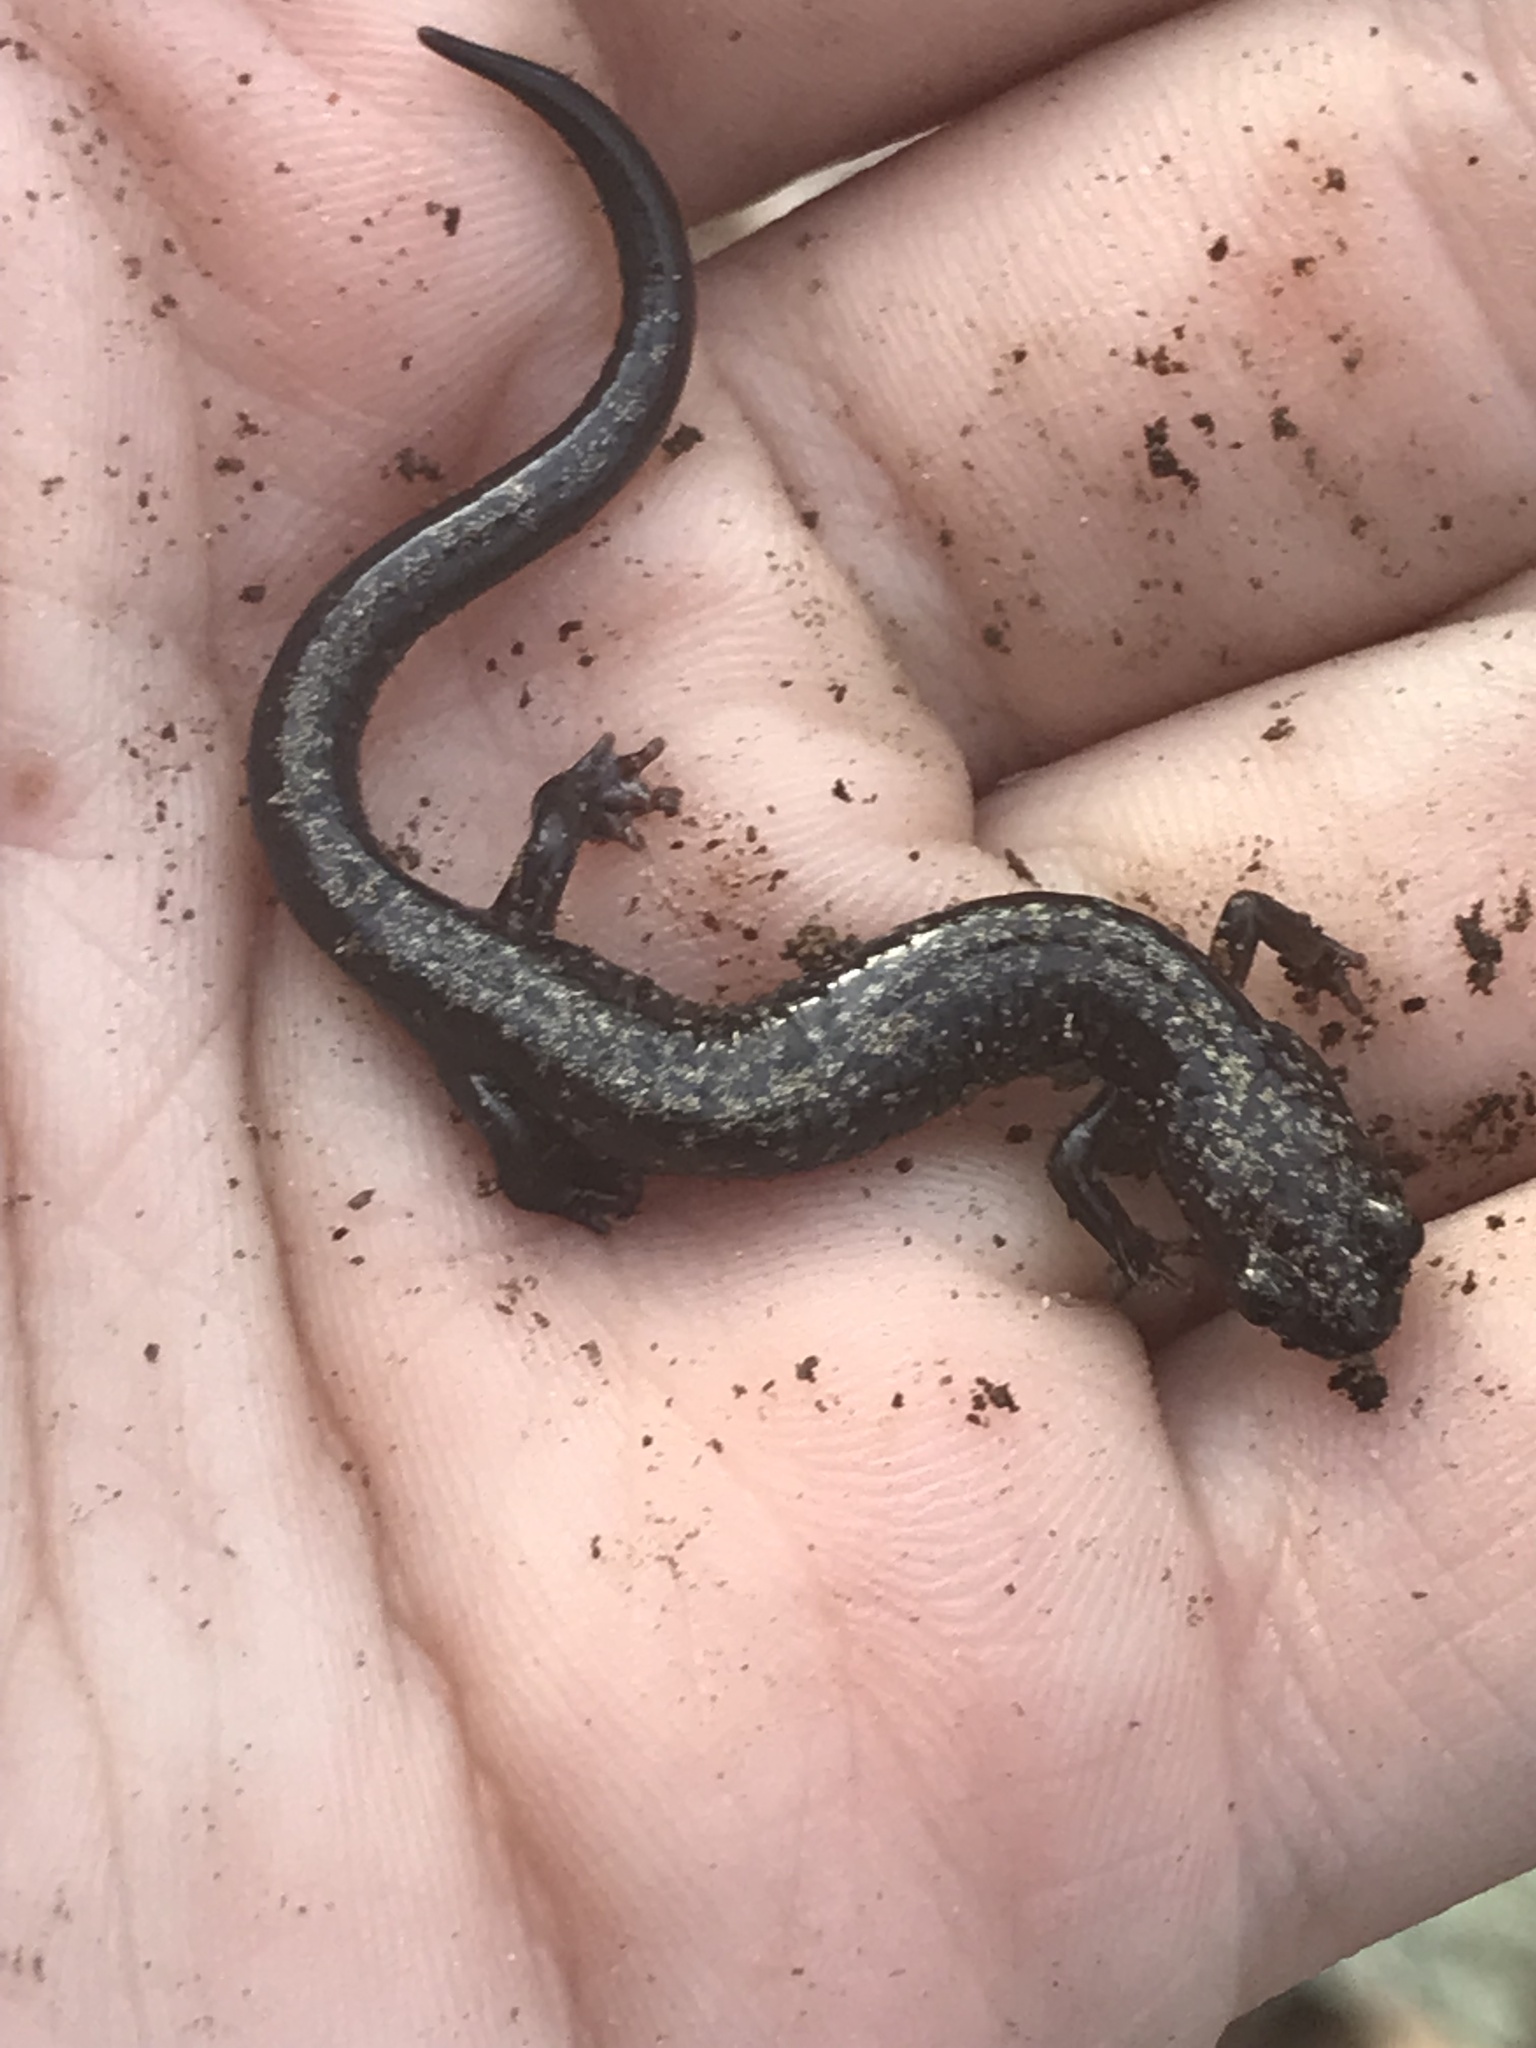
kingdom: Animalia
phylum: Chordata
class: Amphibia
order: Caudata
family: Plethodontidae
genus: Plethodon
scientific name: Plethodon hubrichti
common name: Peaks of otter salamander
